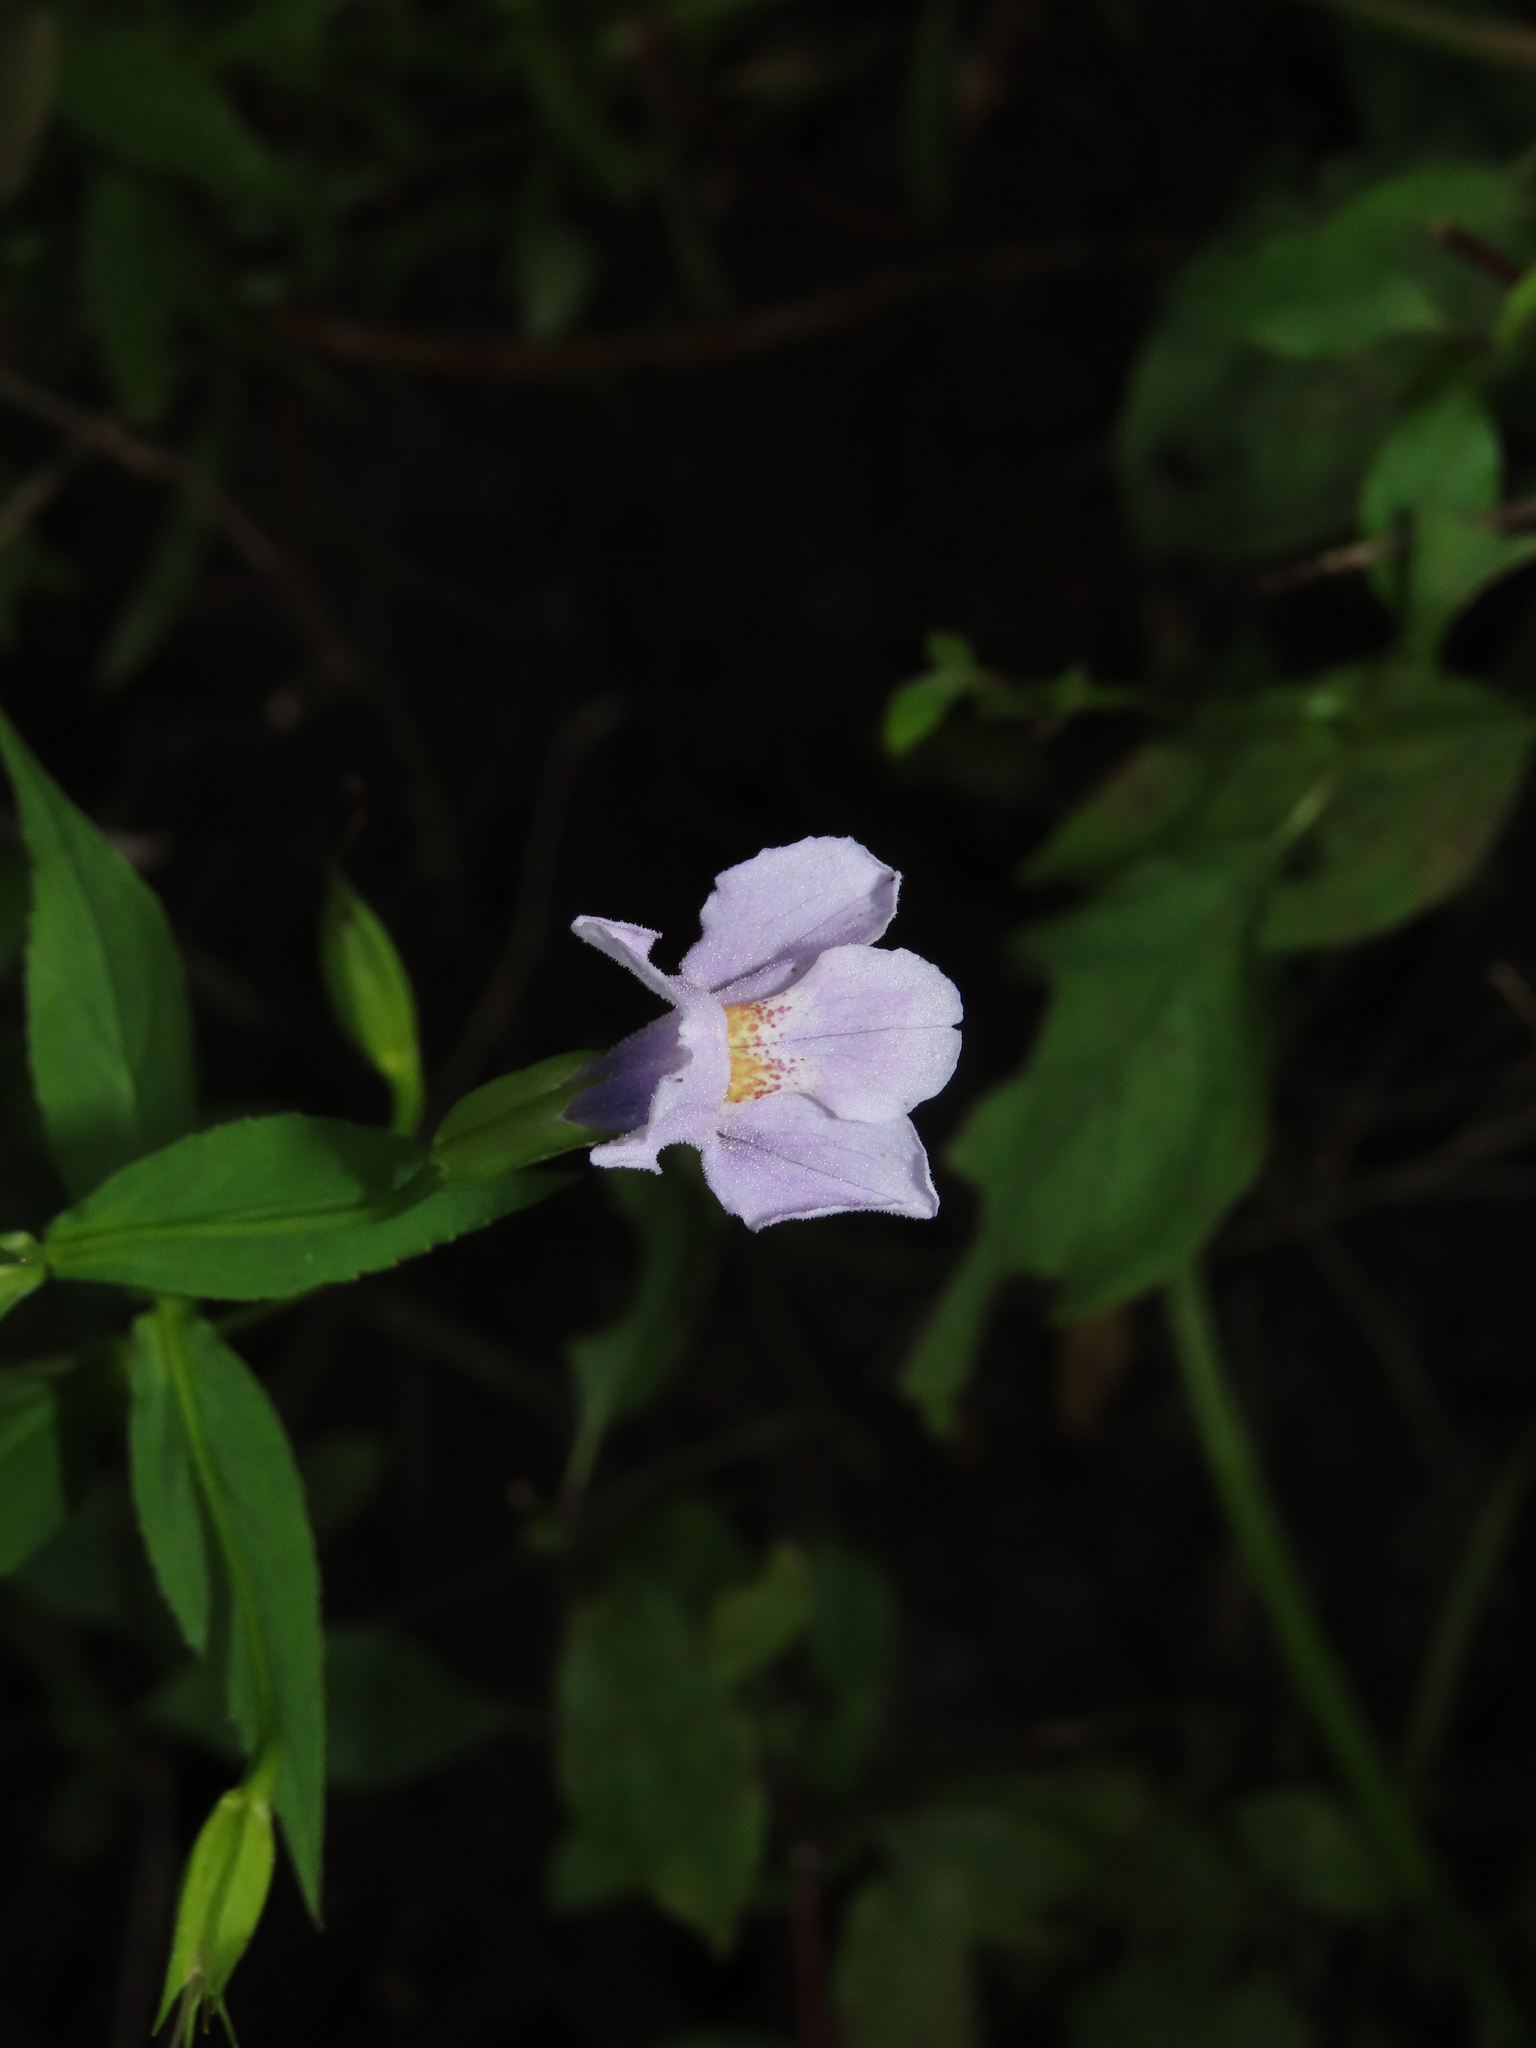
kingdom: Plantae
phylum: Tracheophyta
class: Magnoliopsida
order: Lamiales
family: Phrymaceae
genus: Mimulus
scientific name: Mimulus ringens
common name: Allegheny monkeyflower
